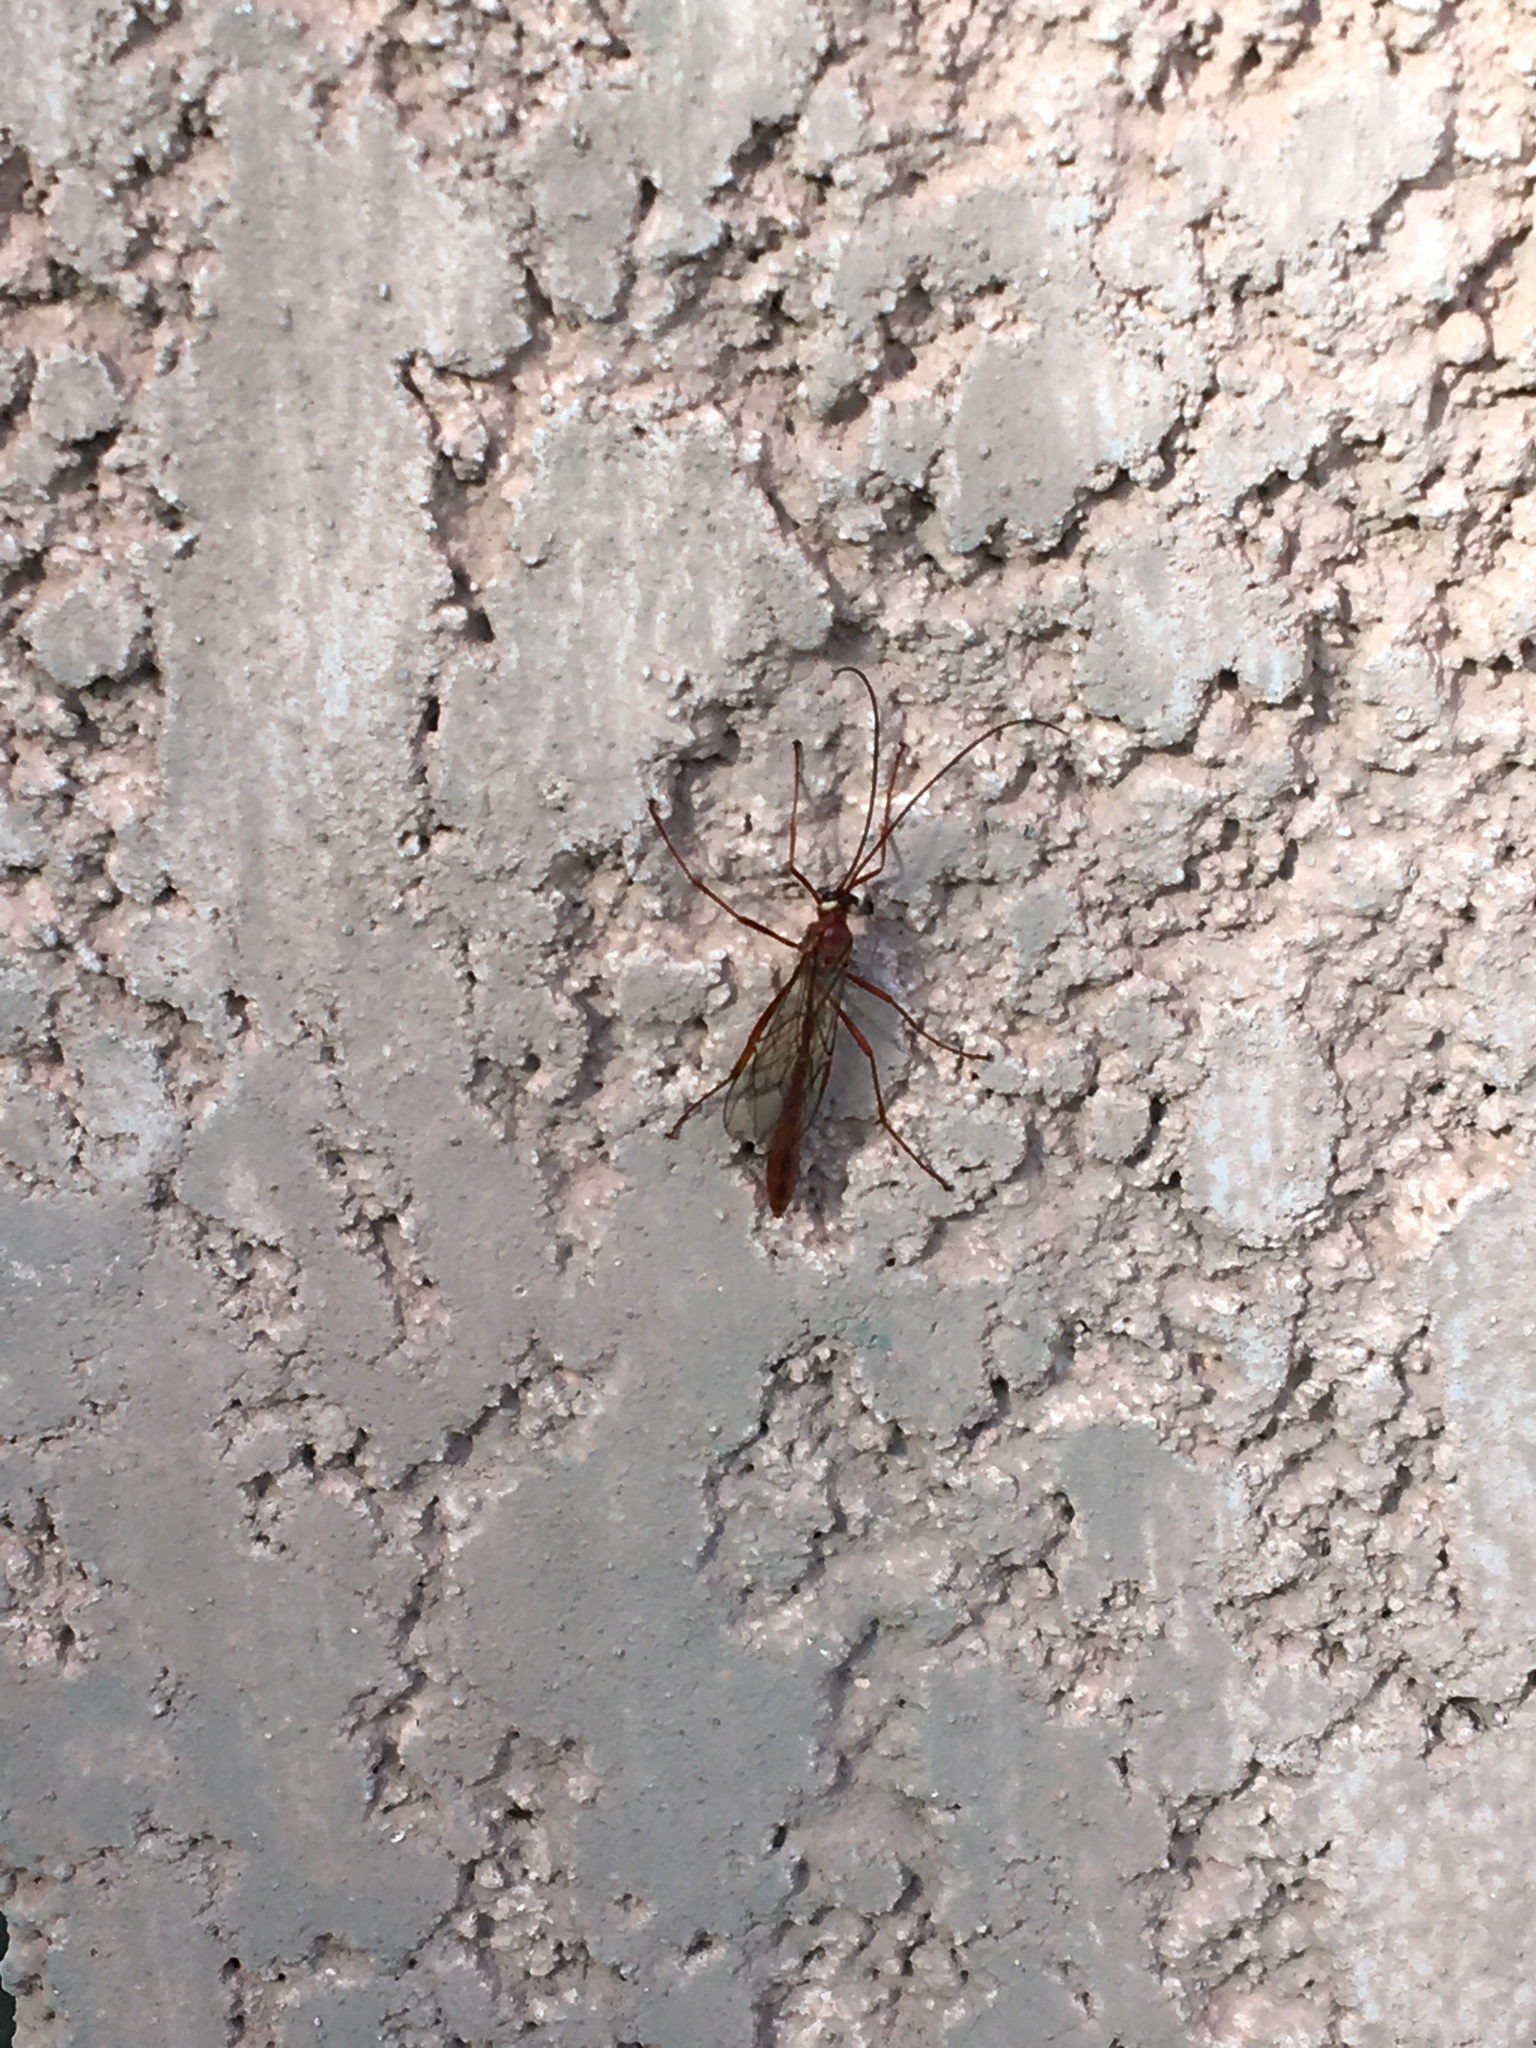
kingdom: Animalia
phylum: Arthropoda
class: Insecta
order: Hymenoptera
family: Ichneumonidae
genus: Enicospilus
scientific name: Enicospilus
